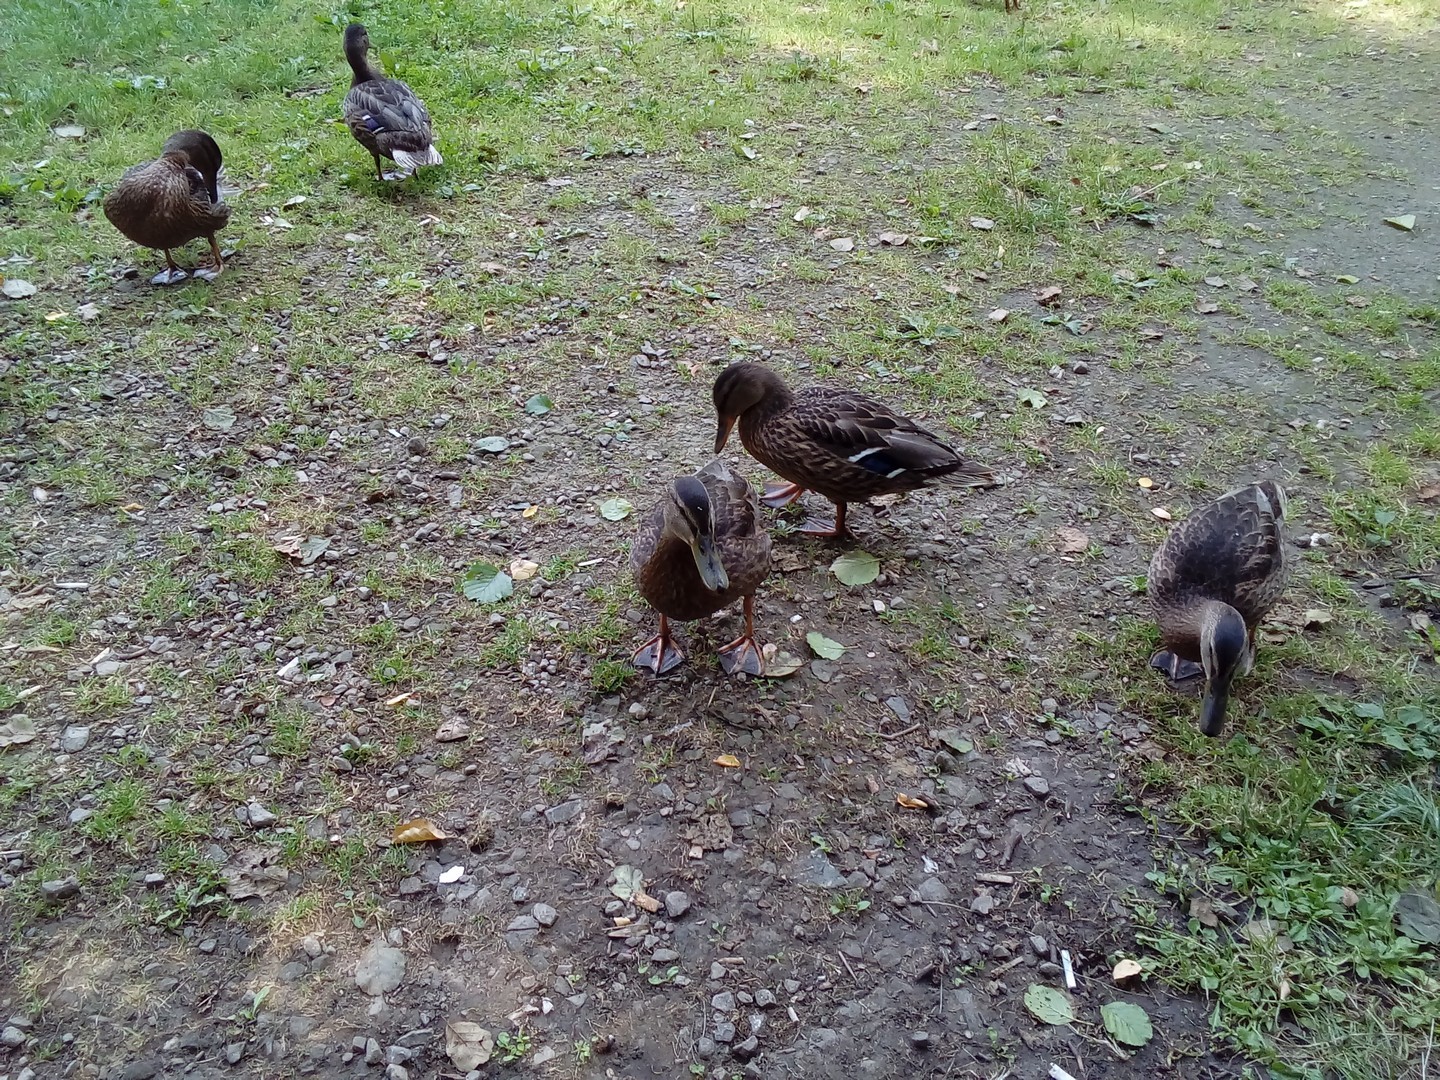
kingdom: Animalia
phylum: Chordata
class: Aves
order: Anseriformes
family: Anatidae
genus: Anas
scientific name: Anas platyrhynchos
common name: Mallard
